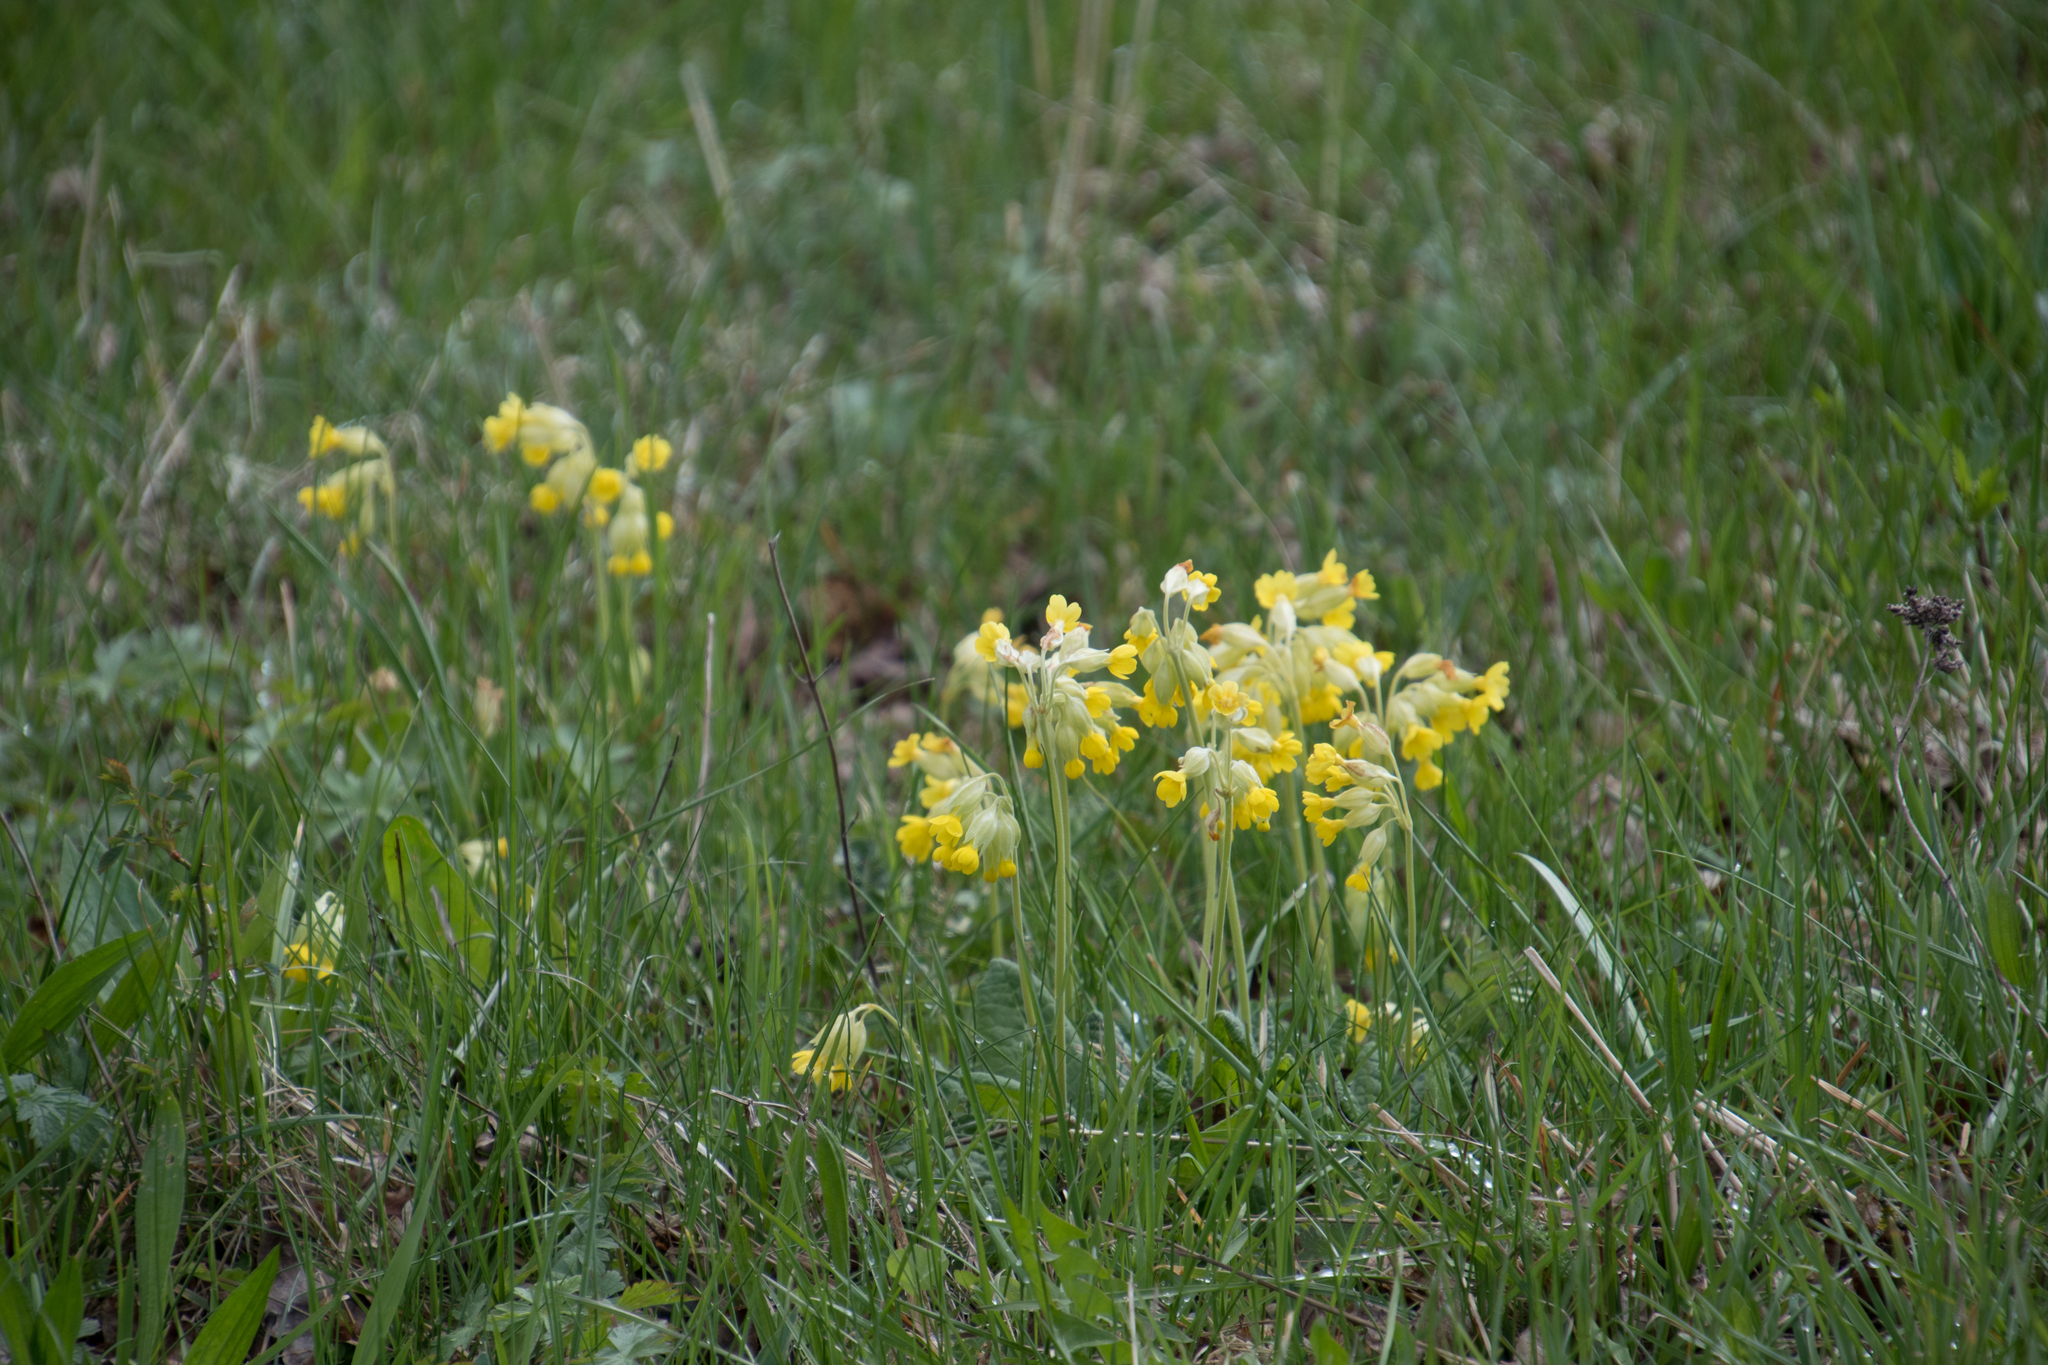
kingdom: Plantae
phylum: Tracheophyta
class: Magnoliopsida
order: Ericales
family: Primulaceae
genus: Primula
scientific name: Primula veris
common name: Cowslip
